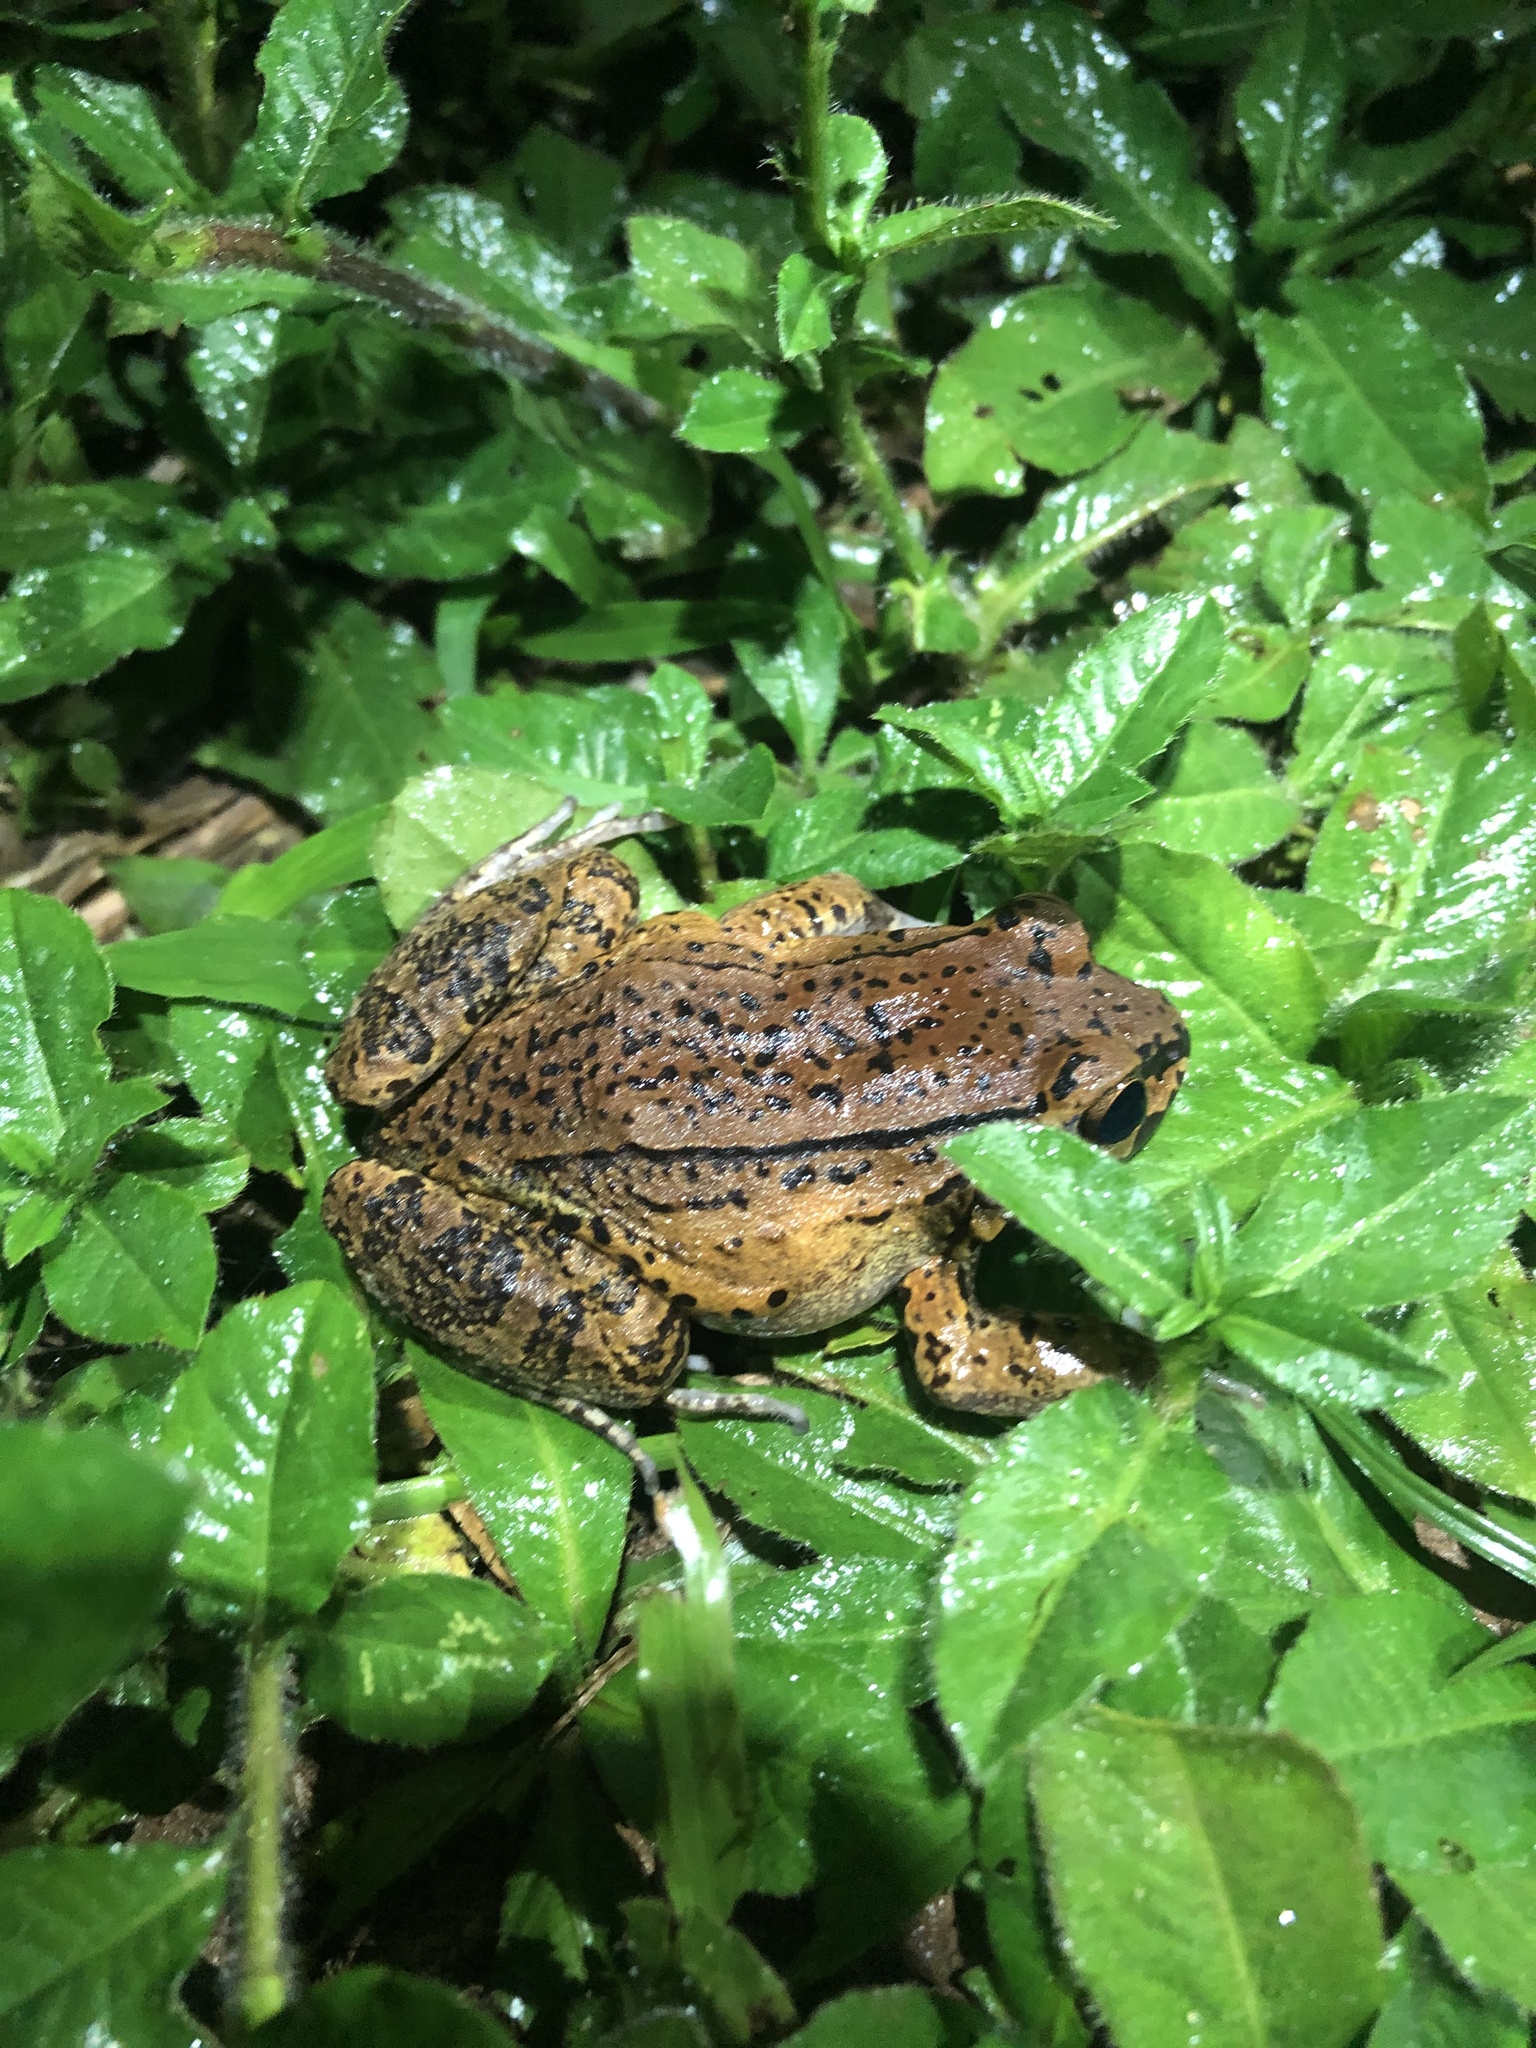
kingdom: Animalia
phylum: Chordata
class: Amphibia
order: Anura
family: Leptodactylidae
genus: Leptodactylus
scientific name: Leptodactylus rhodonotus
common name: Peru white-lipped frog
